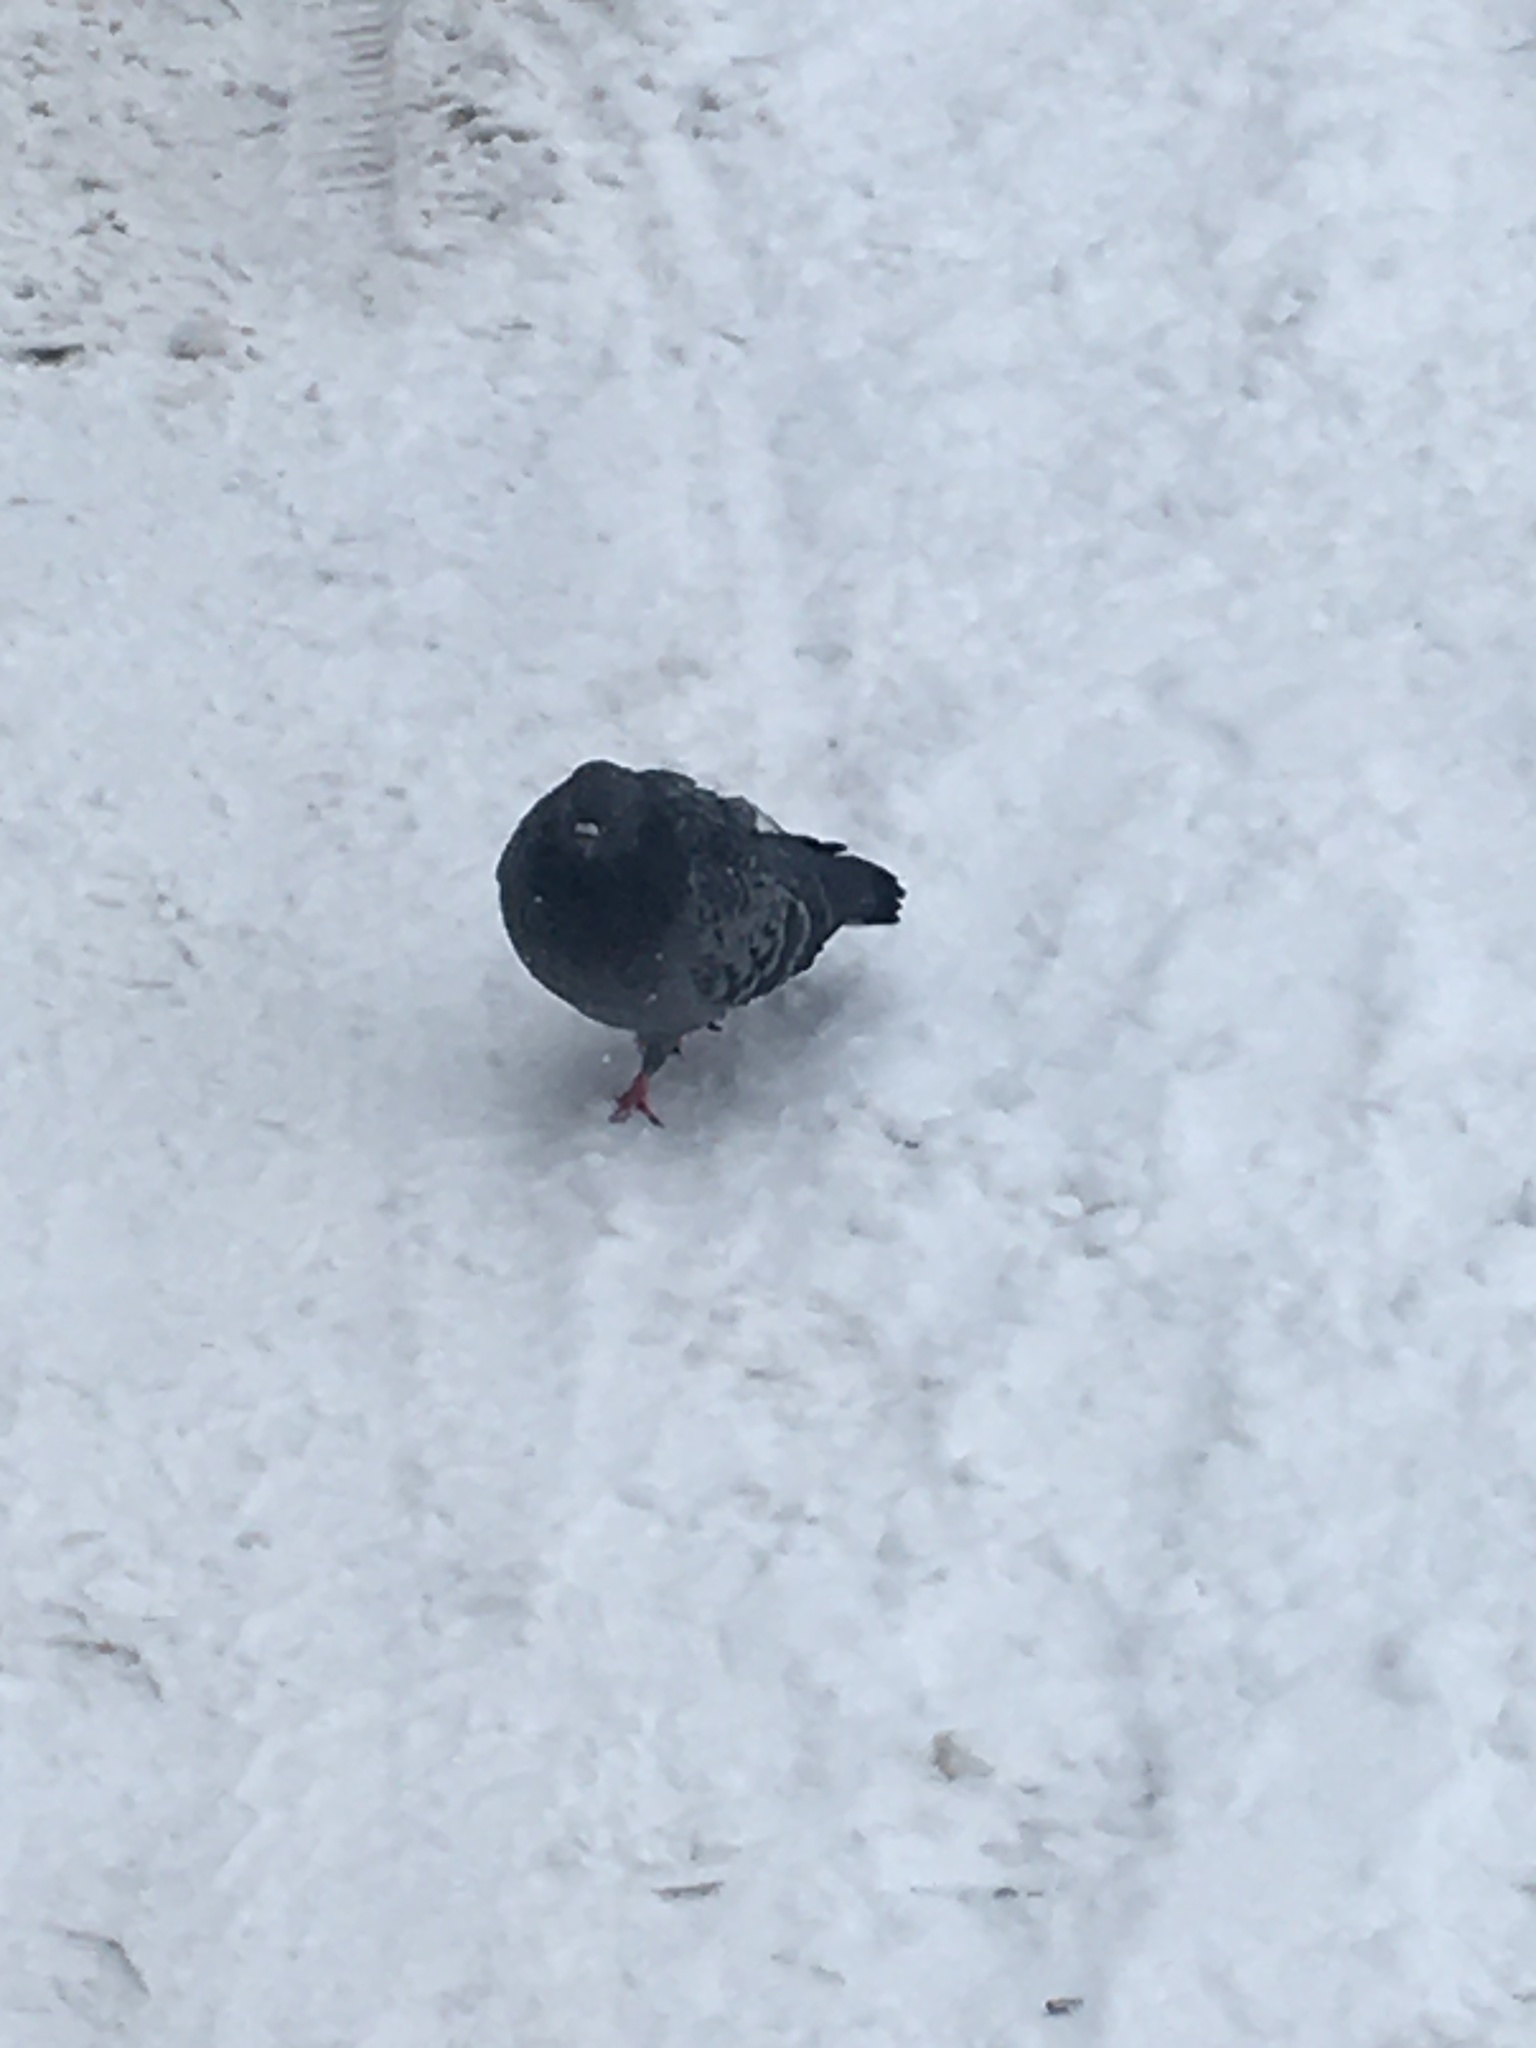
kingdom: Animalia
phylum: Chordata
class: Aves
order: Columbiformes
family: Columbidae
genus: Columba
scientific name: Columba livia
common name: Rock pigeon
